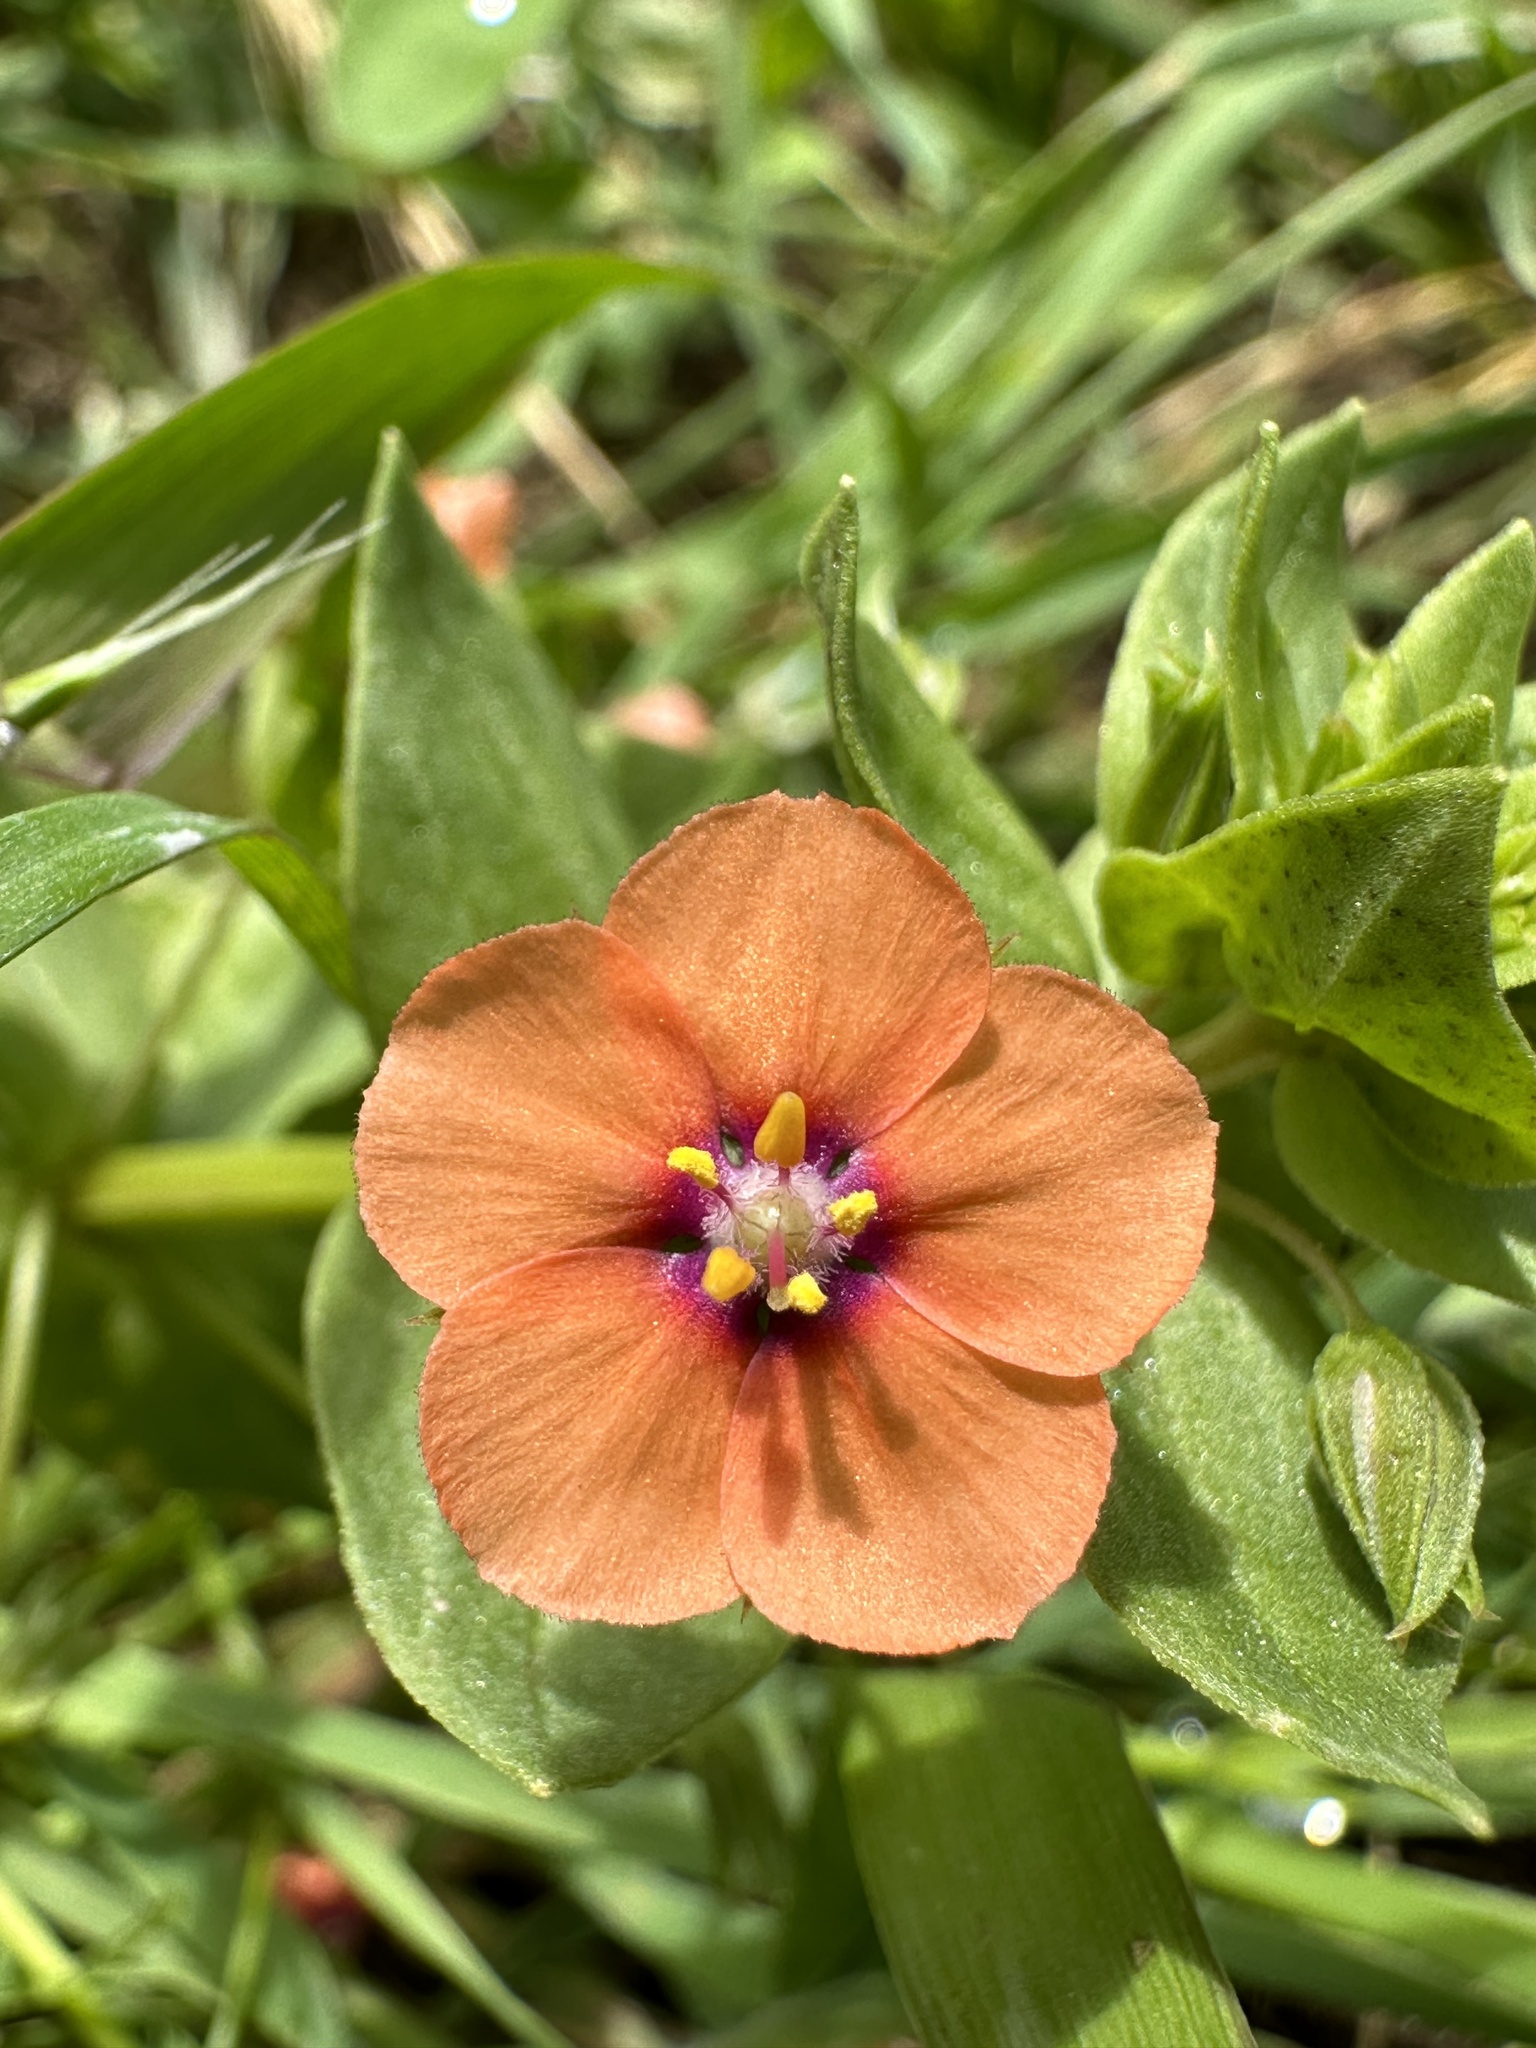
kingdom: Plantae
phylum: Tracheophyta
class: Magnoliopsida
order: Ericales
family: Primulaceae
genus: Lysimachia
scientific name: Lysimachia arvensis
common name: Scarlet pimpernel
